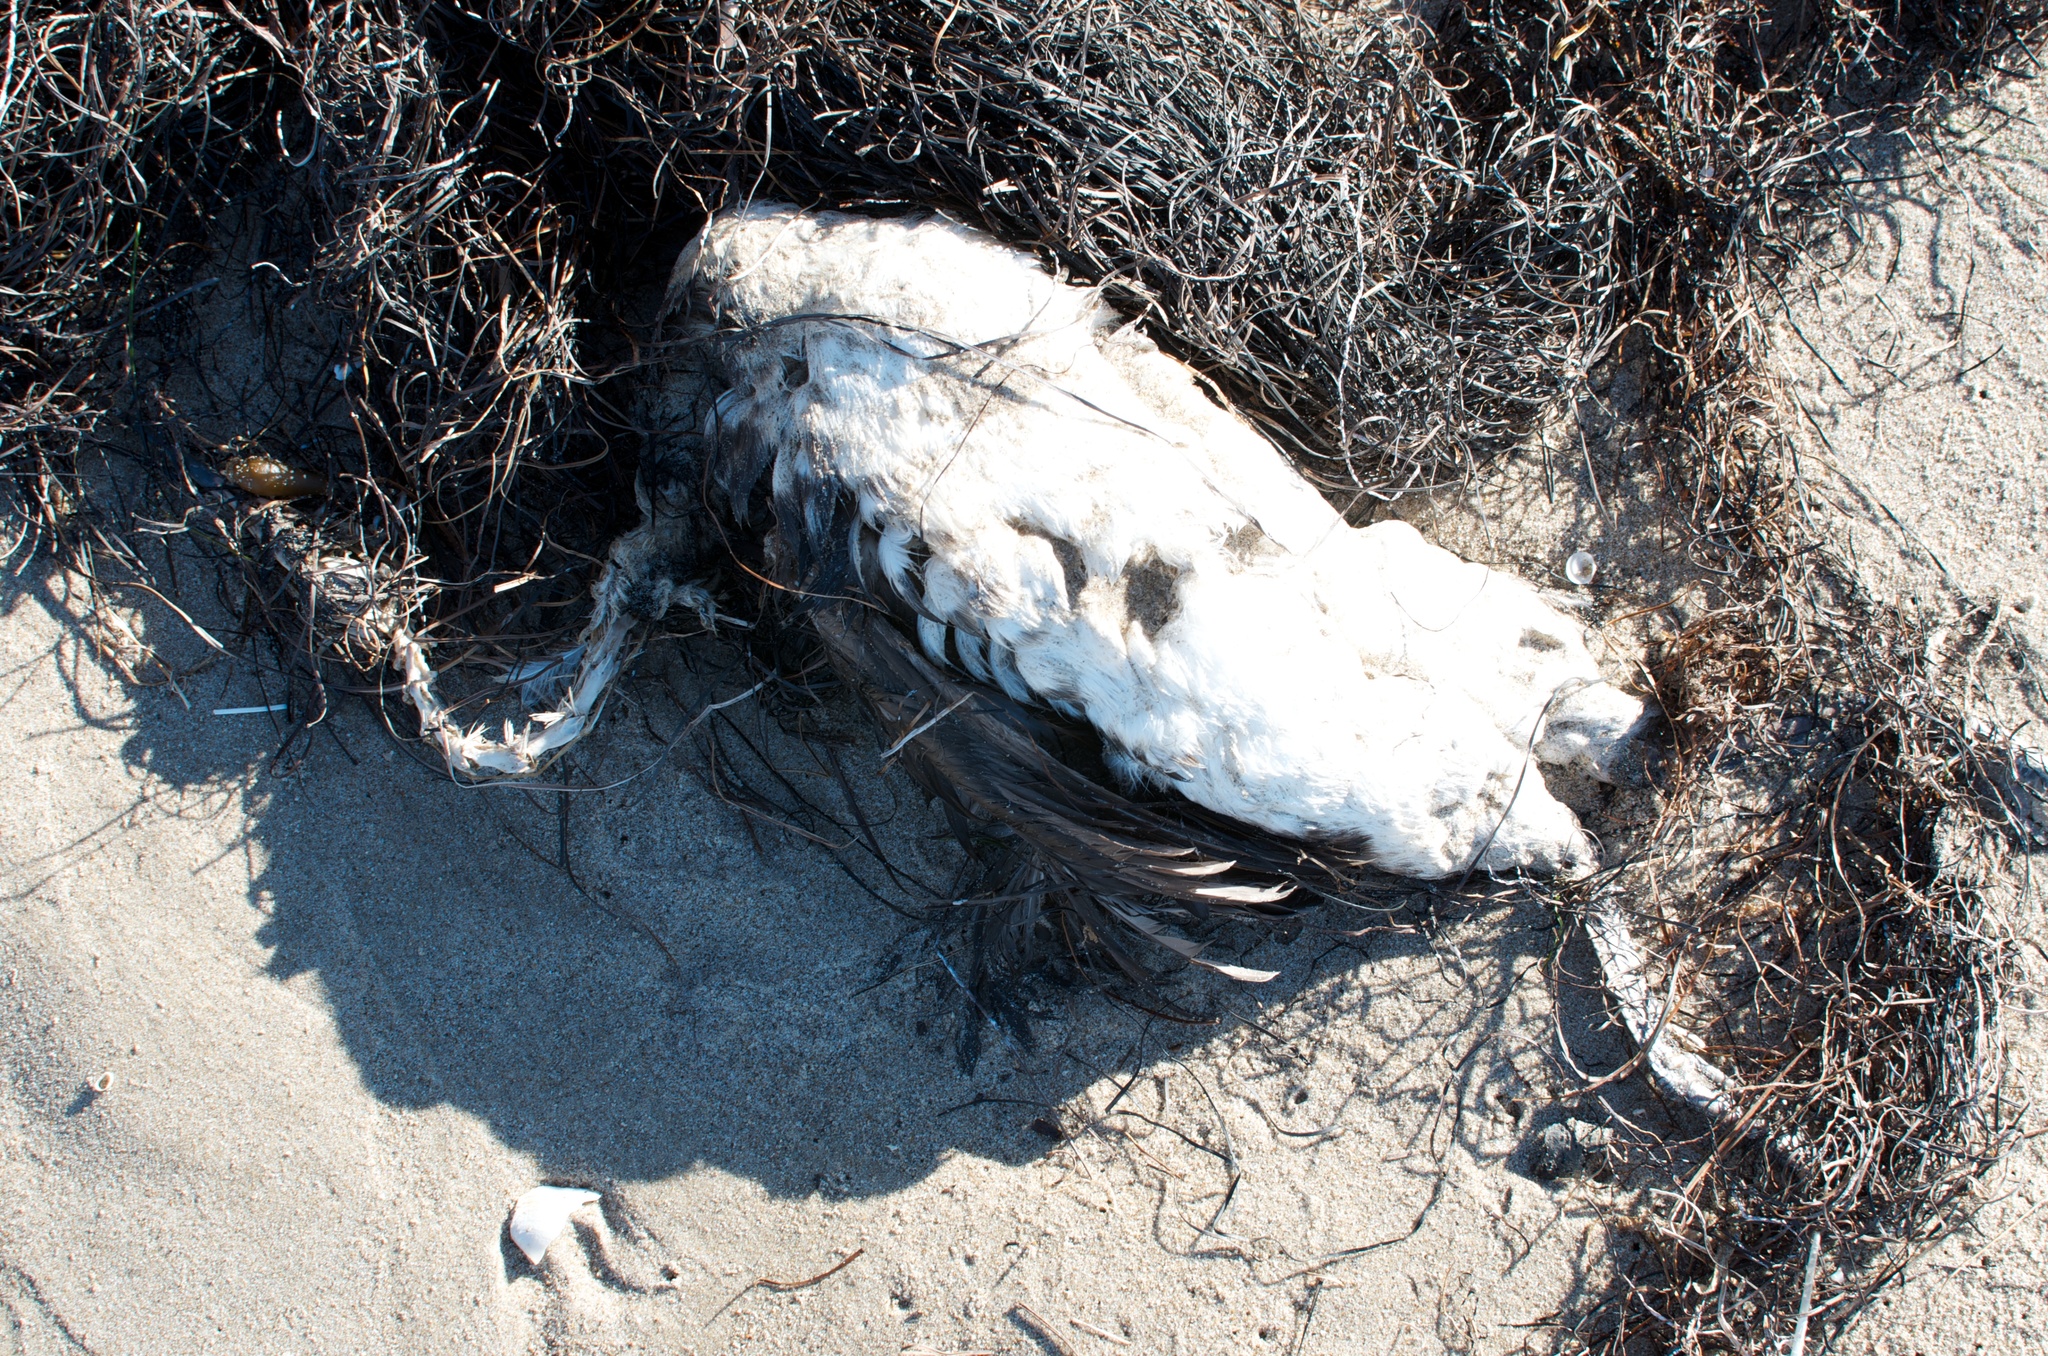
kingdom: Animalia
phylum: Chordata
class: Aves
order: Podicipediformes
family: Podicipedidae
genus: Aechmophorus
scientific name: Aechmophorus
